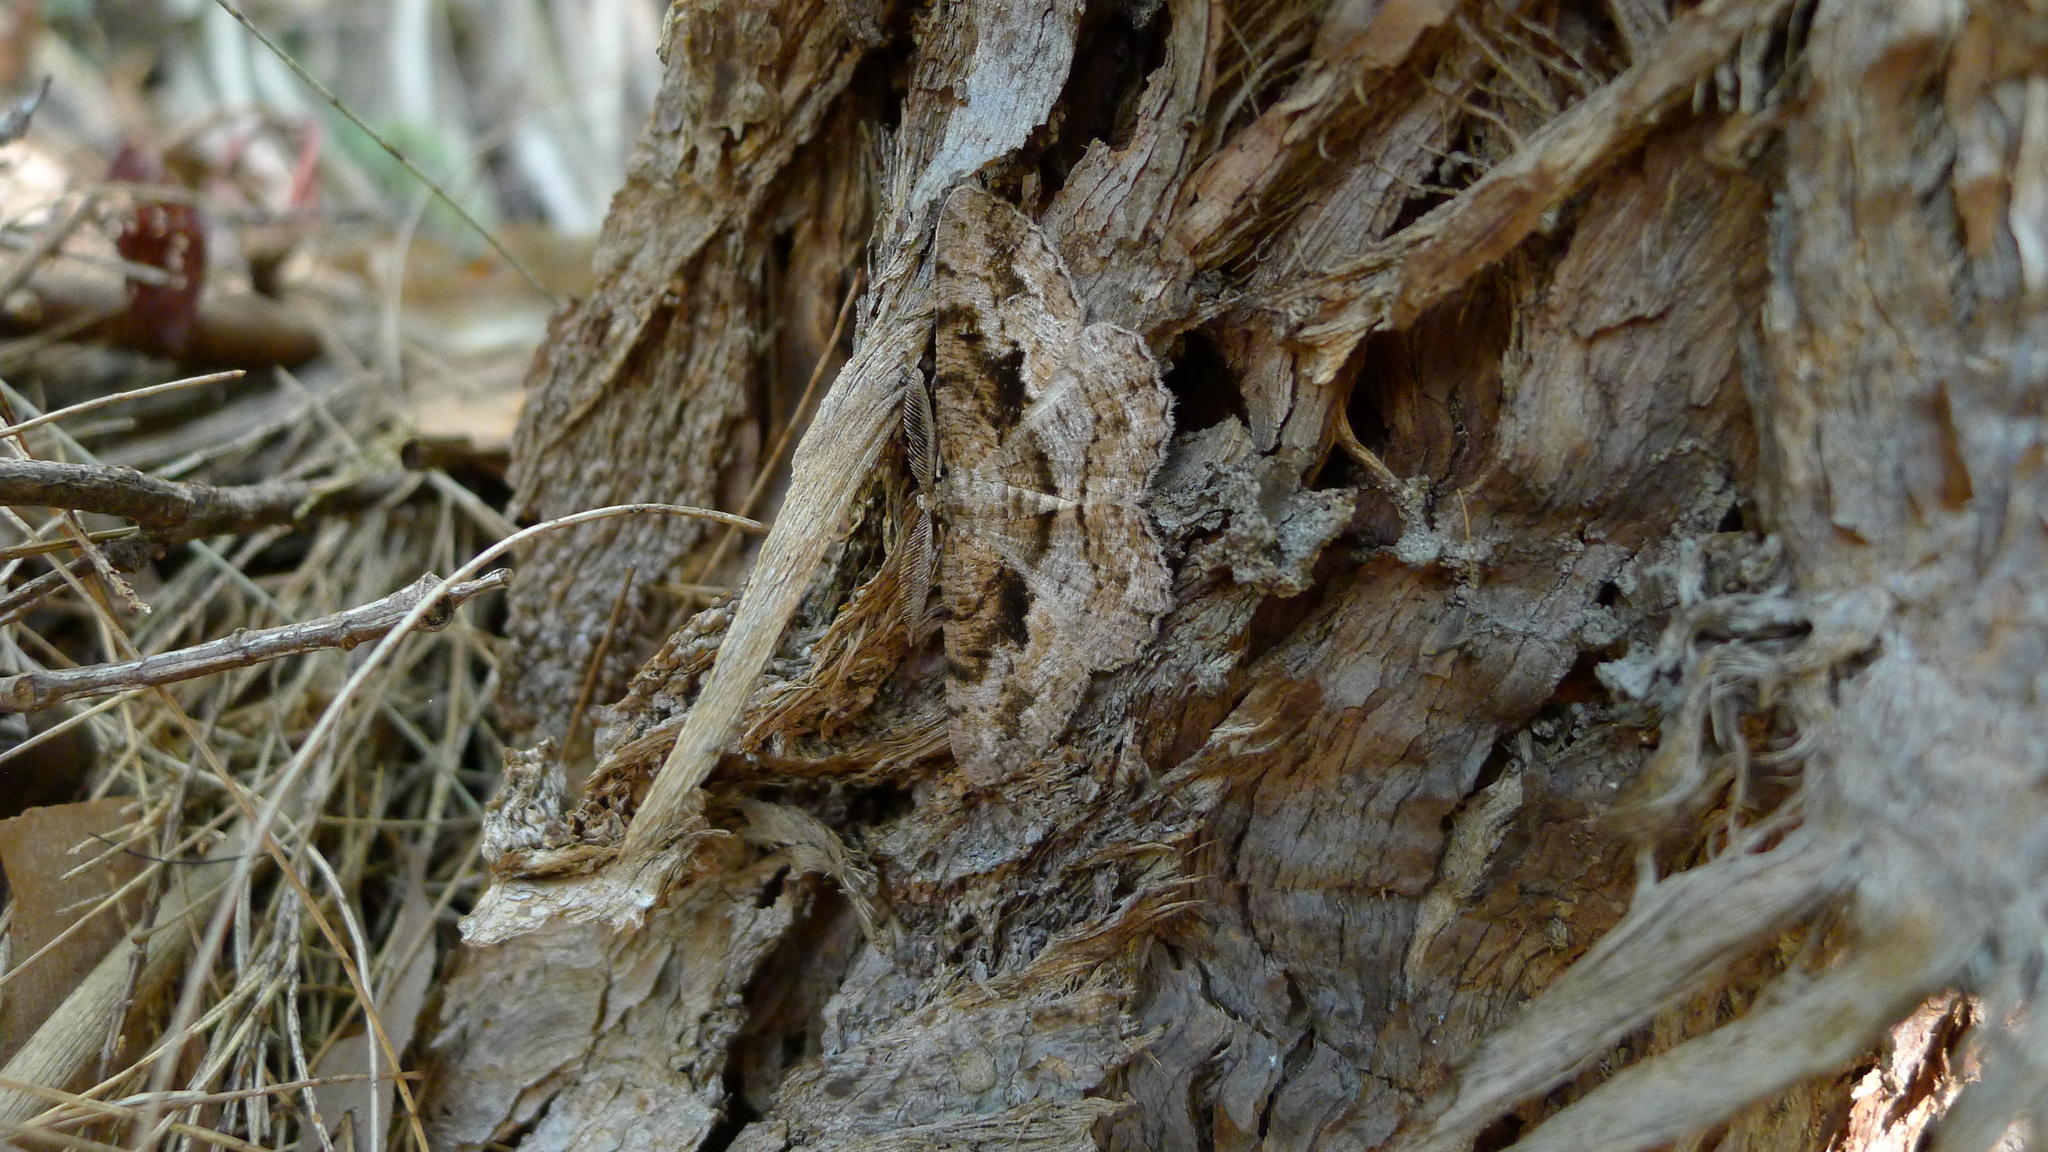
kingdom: Animalia
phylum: Arthropoda
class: Insecta
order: Lepidoptera
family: Geometridae
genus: Hypomecis
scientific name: Hypomecis externaria
